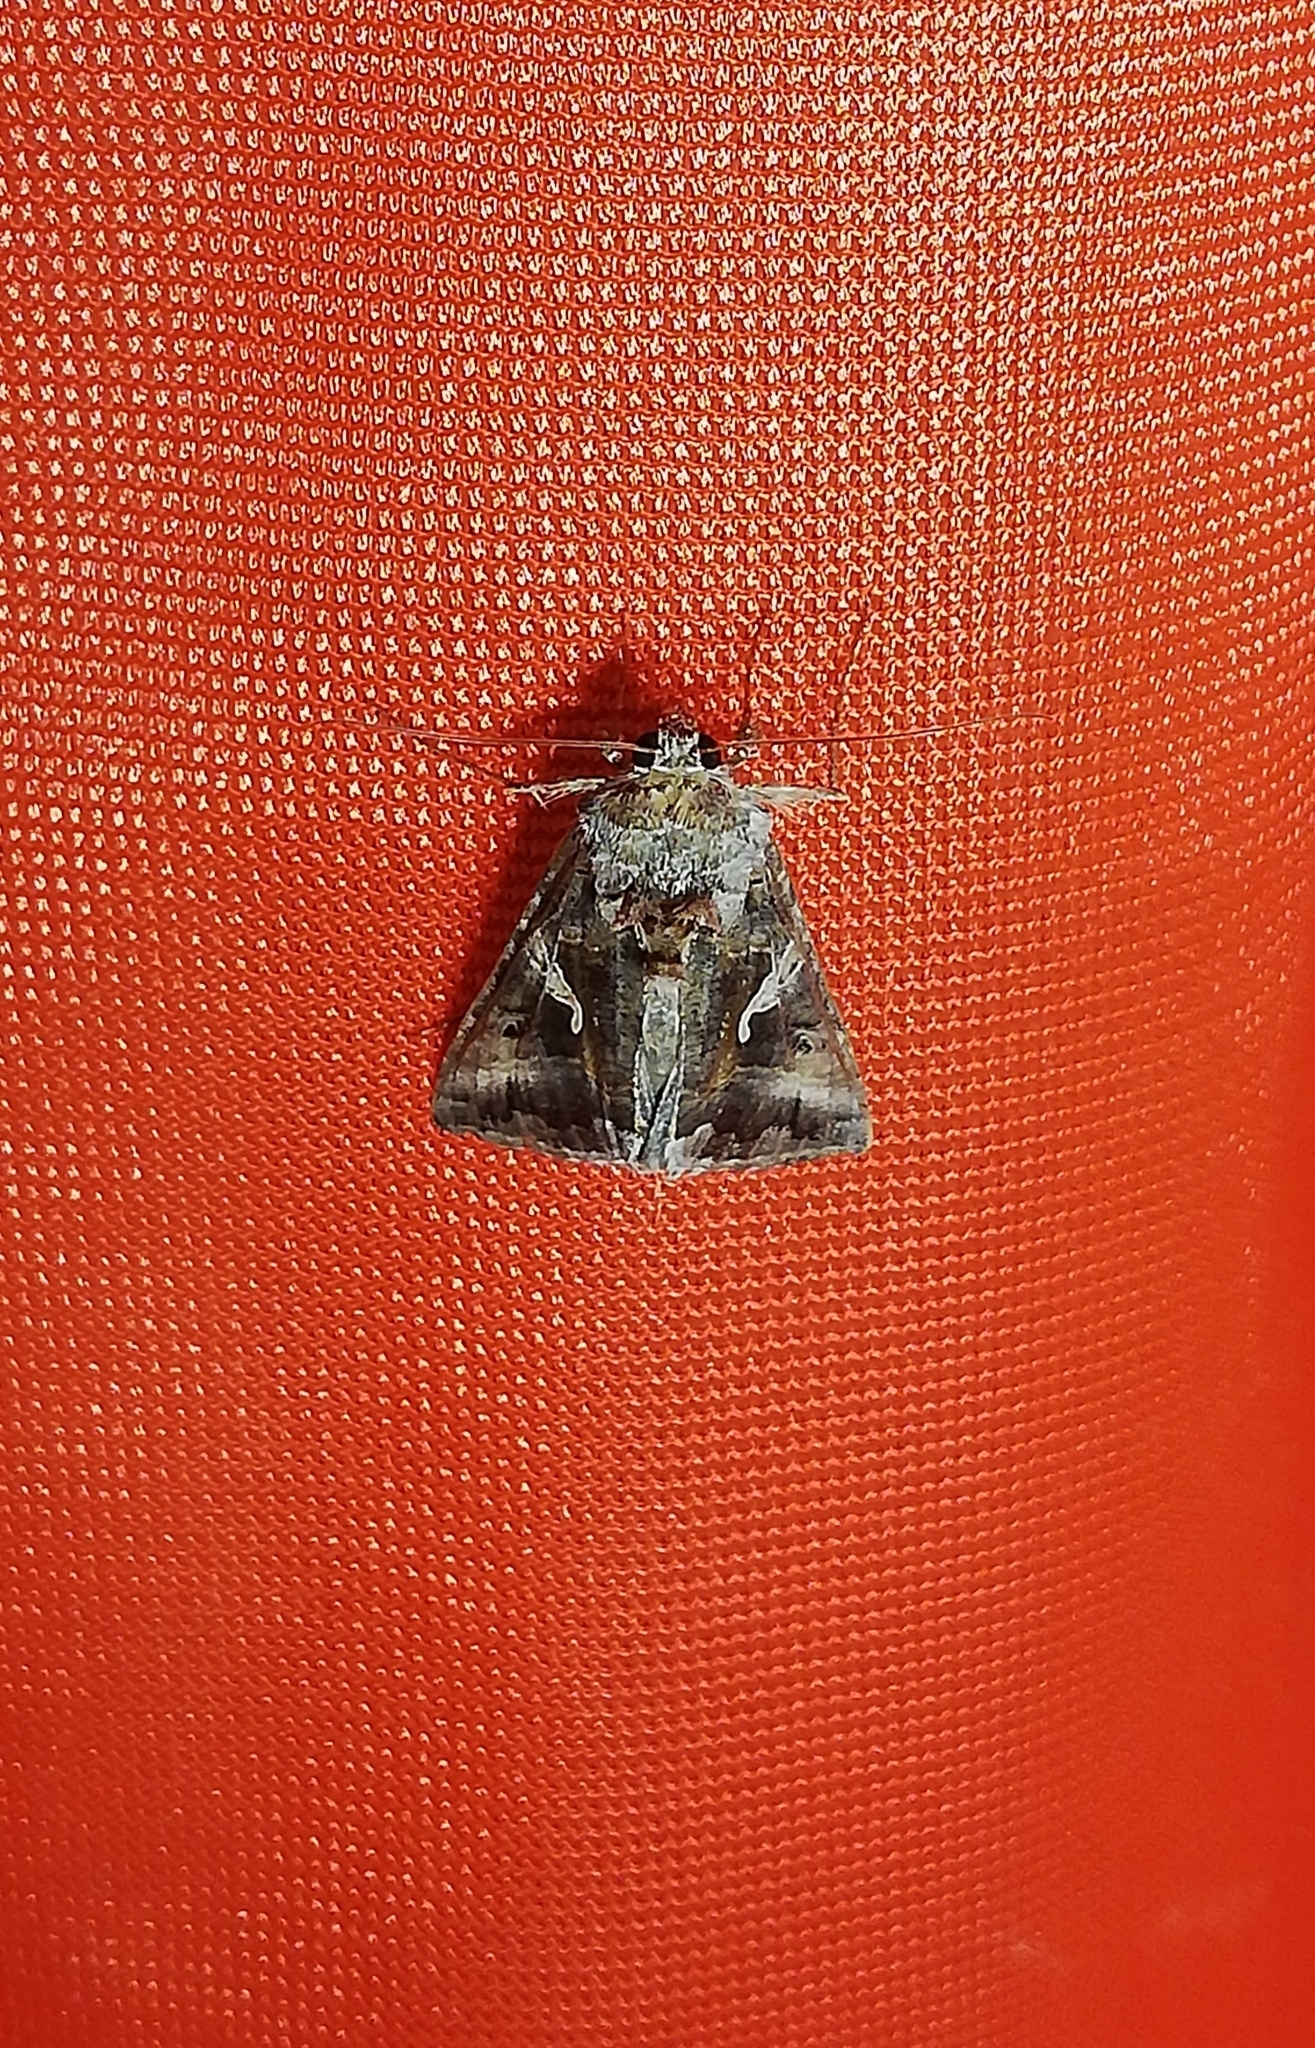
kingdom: Animalia
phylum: Arthropoda
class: Insecta
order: Lepidoptera
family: Noctuidae
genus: Autographa
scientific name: Autographa gamma
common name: Silver y
